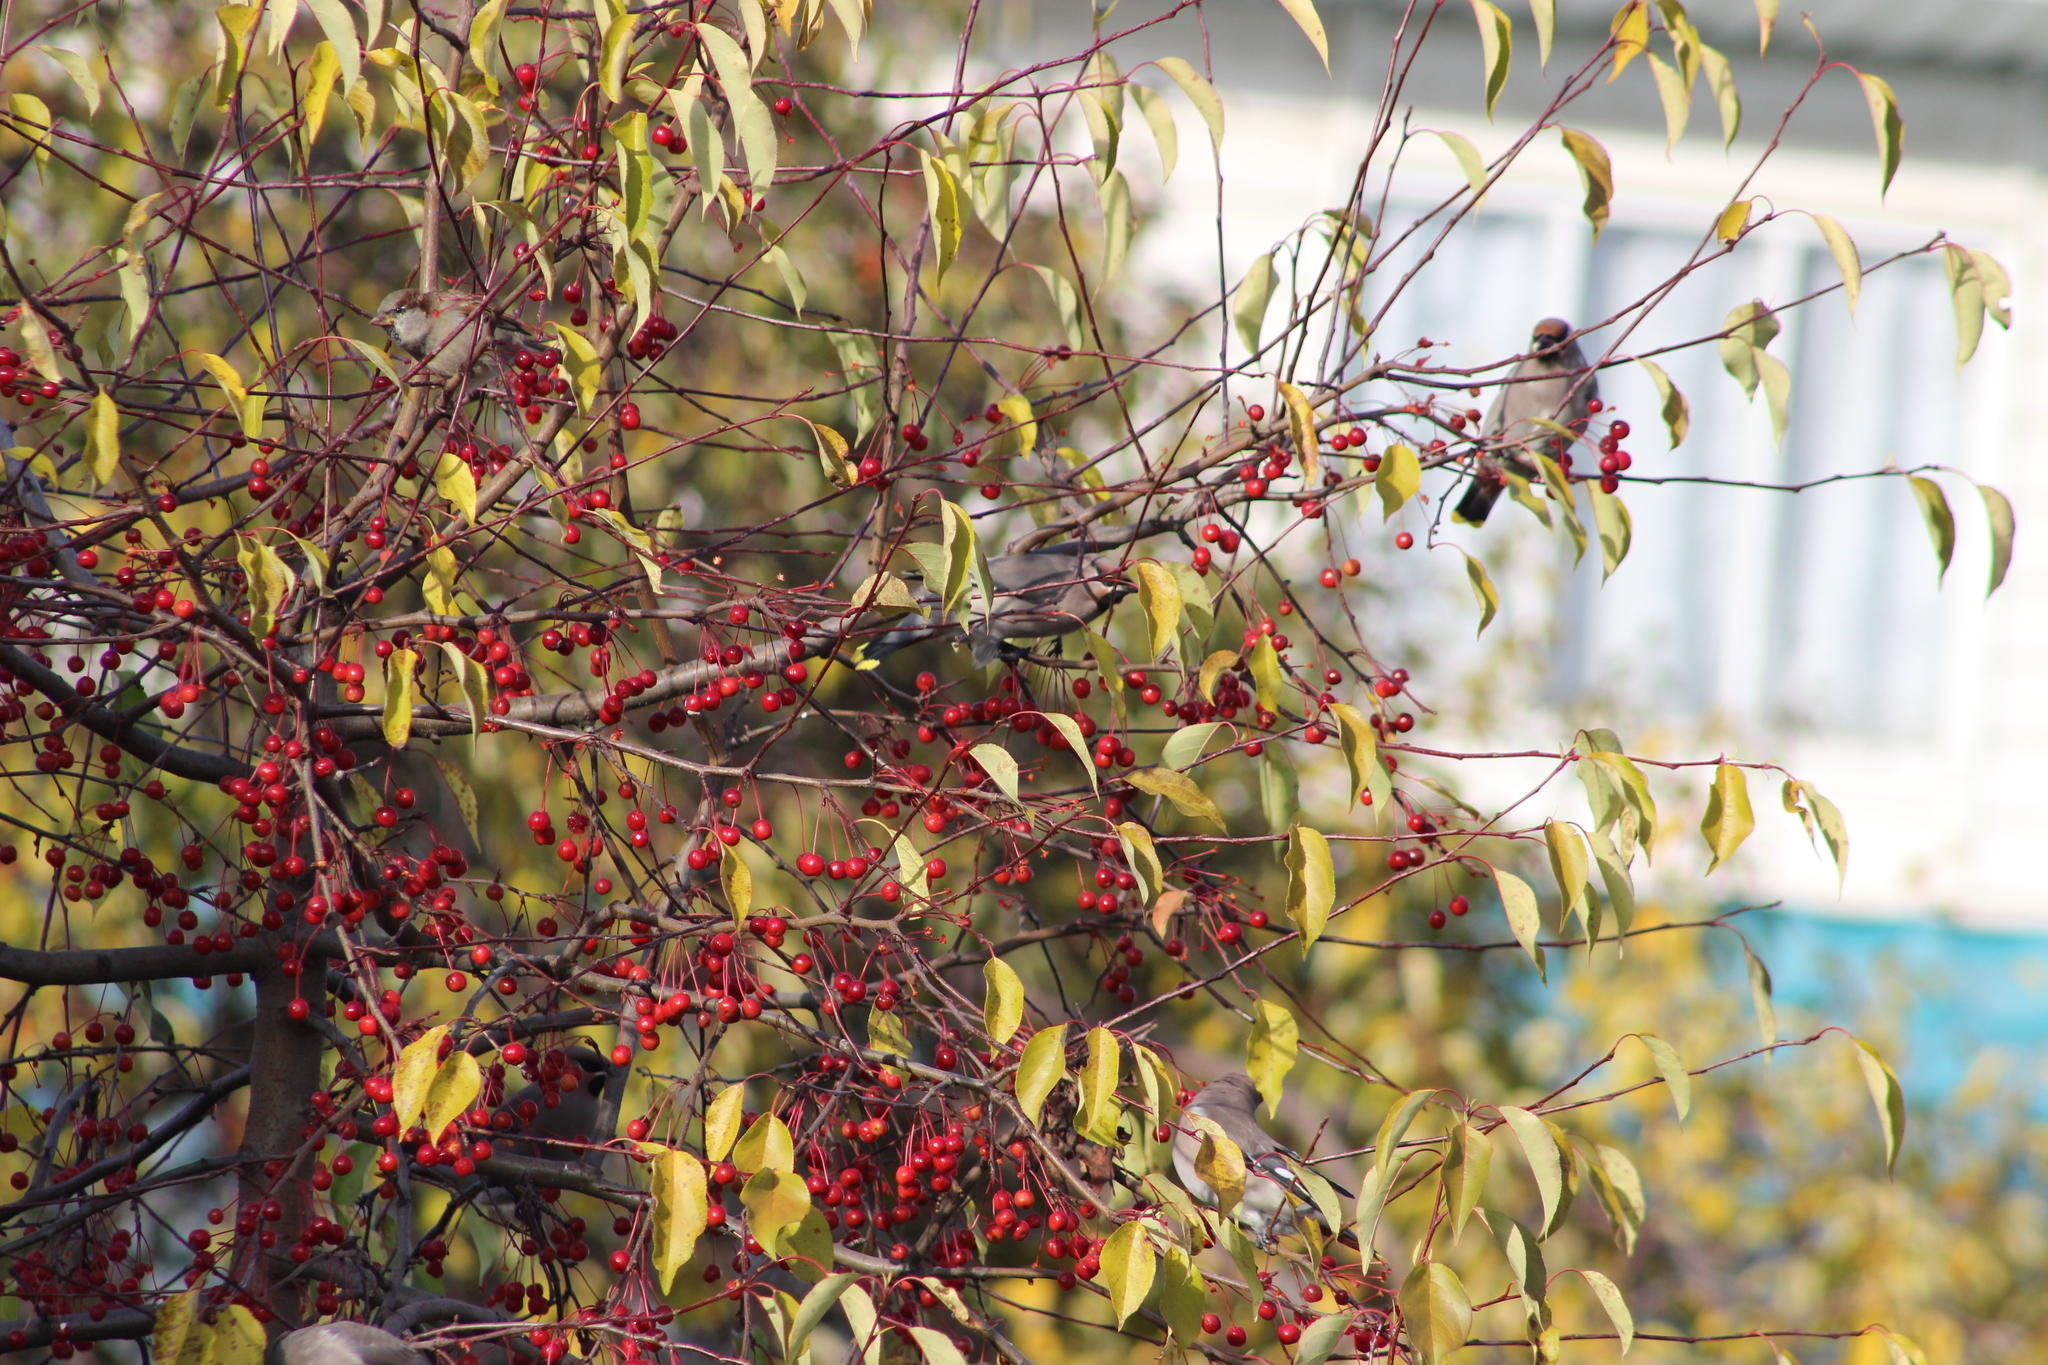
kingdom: Animalia
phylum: Chordata
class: Aves
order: Passeriformes
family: Bombycillidae
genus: Bombycilla
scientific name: Bombycilla garrulus
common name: Bohemian waxwing
